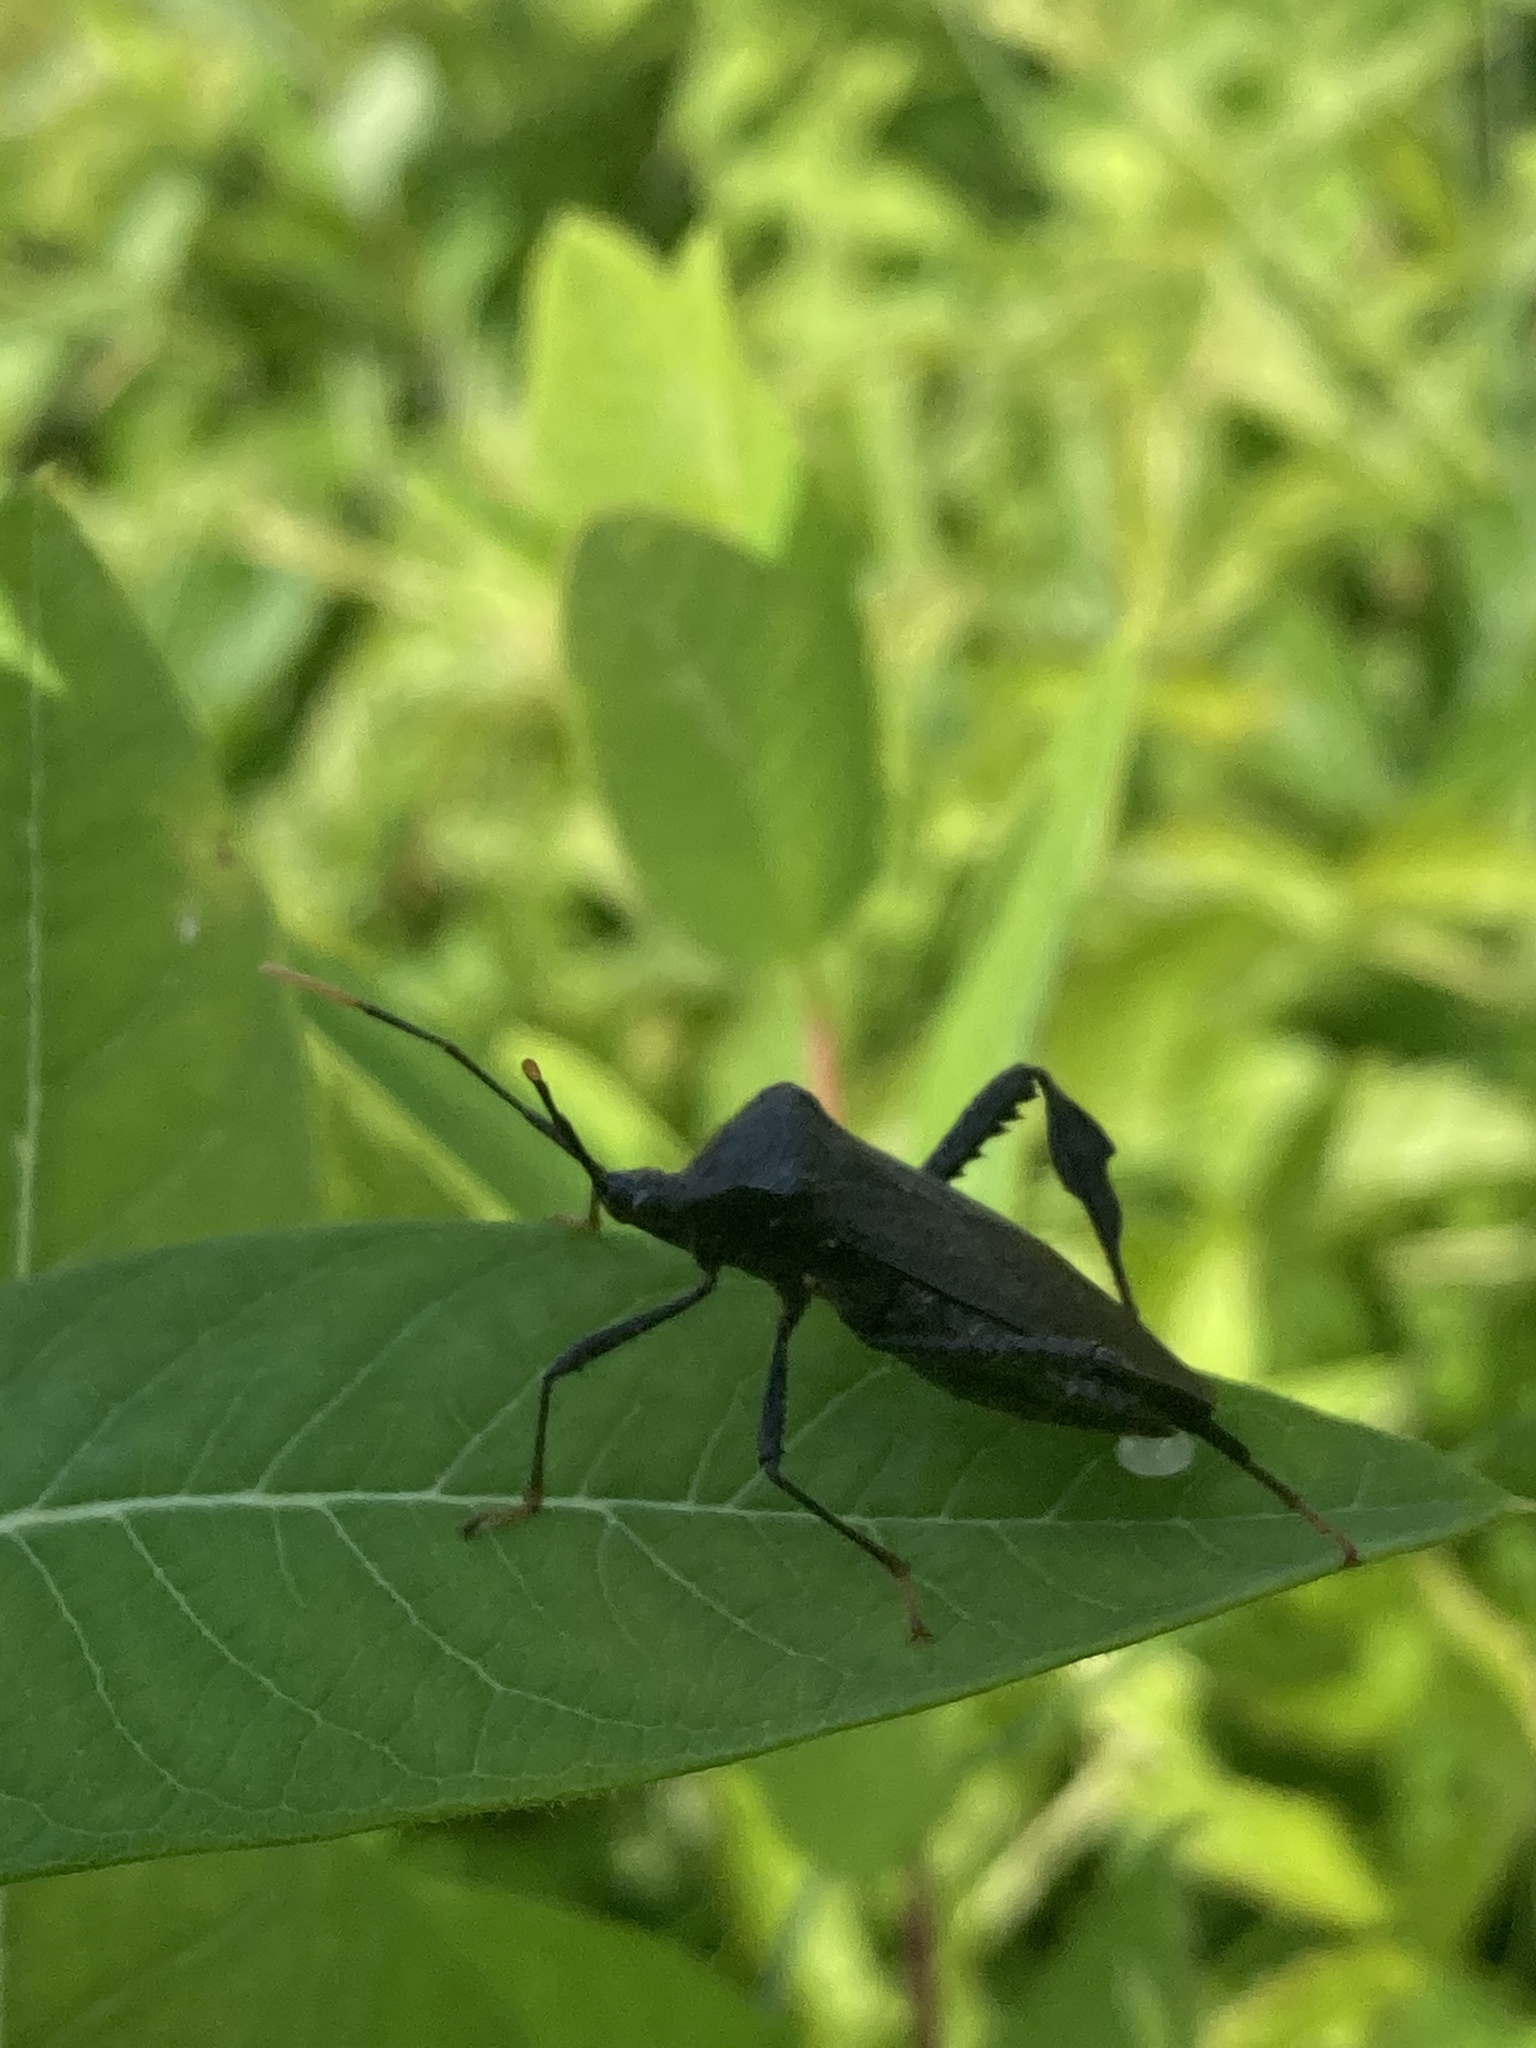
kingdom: Animalia
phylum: Arthropoda
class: Insecta
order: Hemiptera
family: Coreidae
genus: Acanthocephala
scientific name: Acanthocephala terminalis
